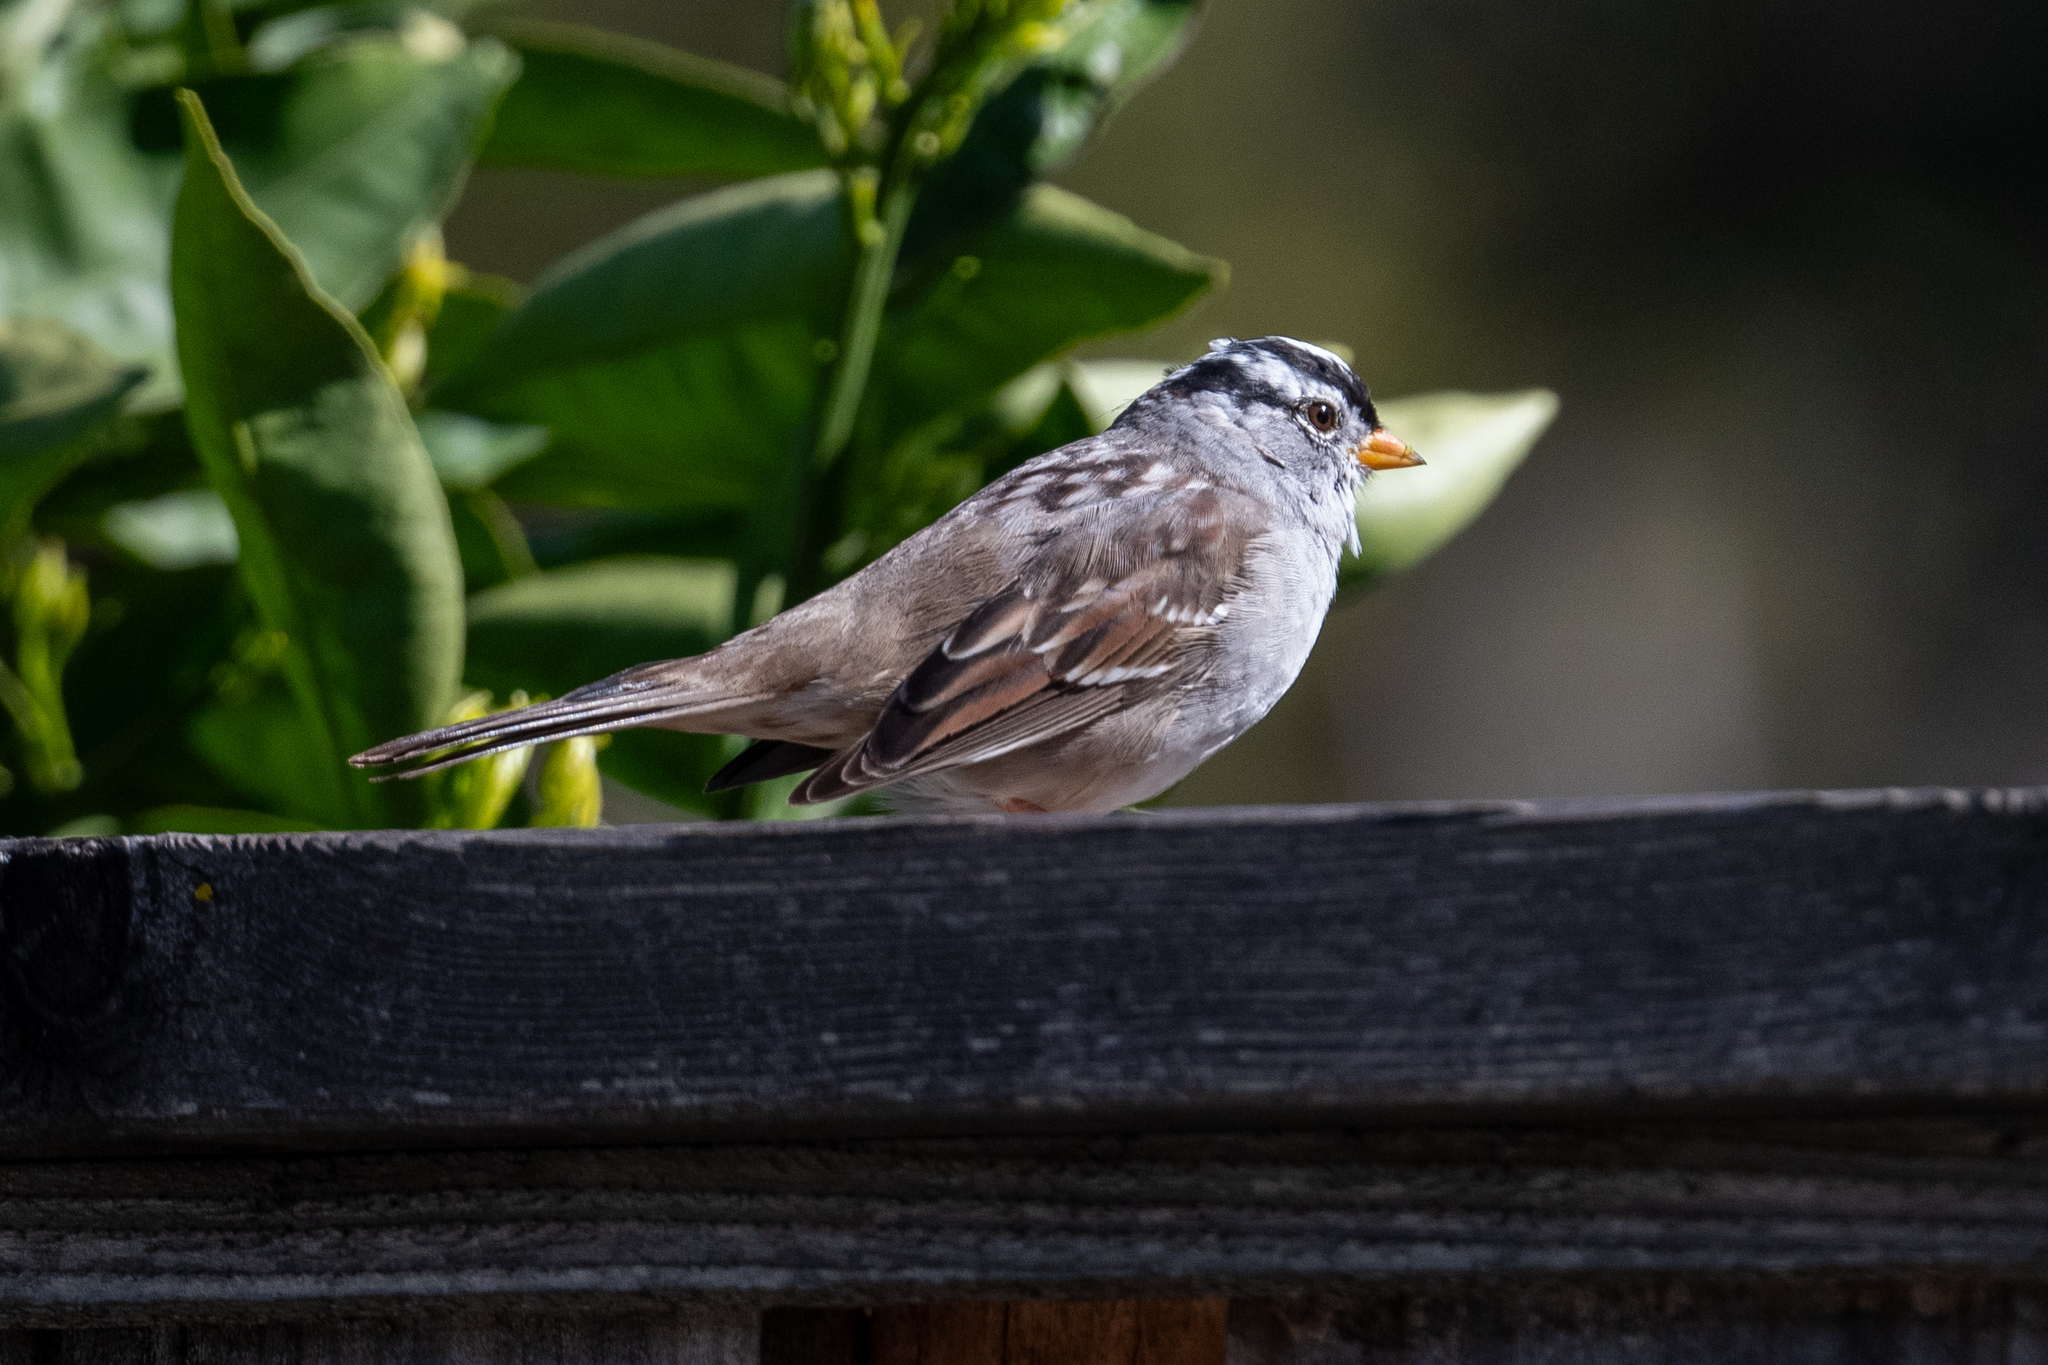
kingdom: Animalia
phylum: Chordata
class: Aves
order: Passeriformes
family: Passerellidae
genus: Zonotrichia
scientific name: Zonotrichia leucophrys
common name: White-crowned sparrow
